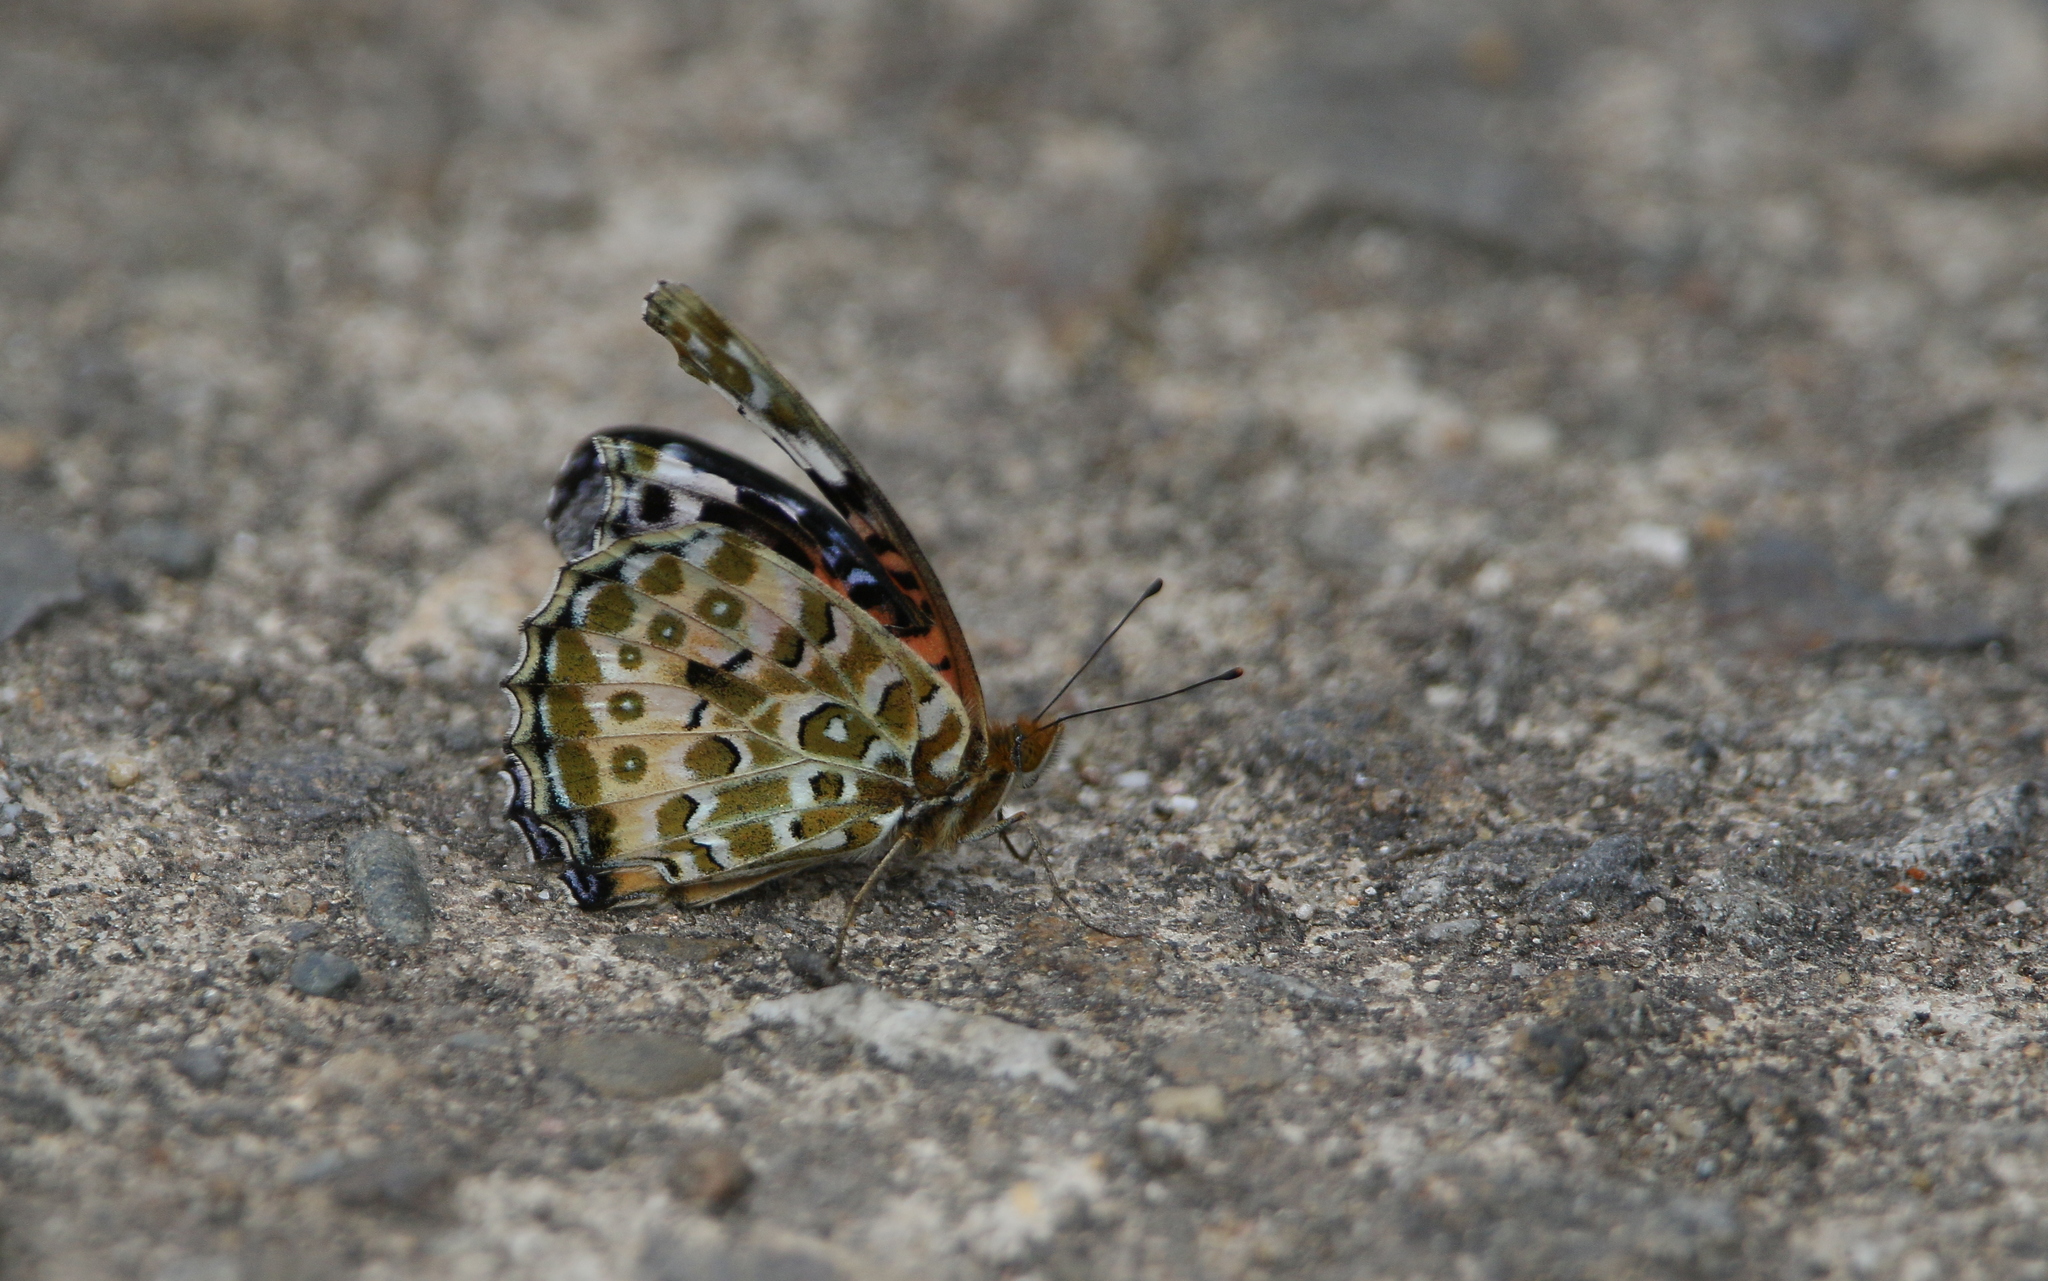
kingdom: Animalia
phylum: Arthropoda
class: Insecta
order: Lepidoptera
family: Nymphalidae
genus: Argynnis
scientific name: Argynnis hyperbius
